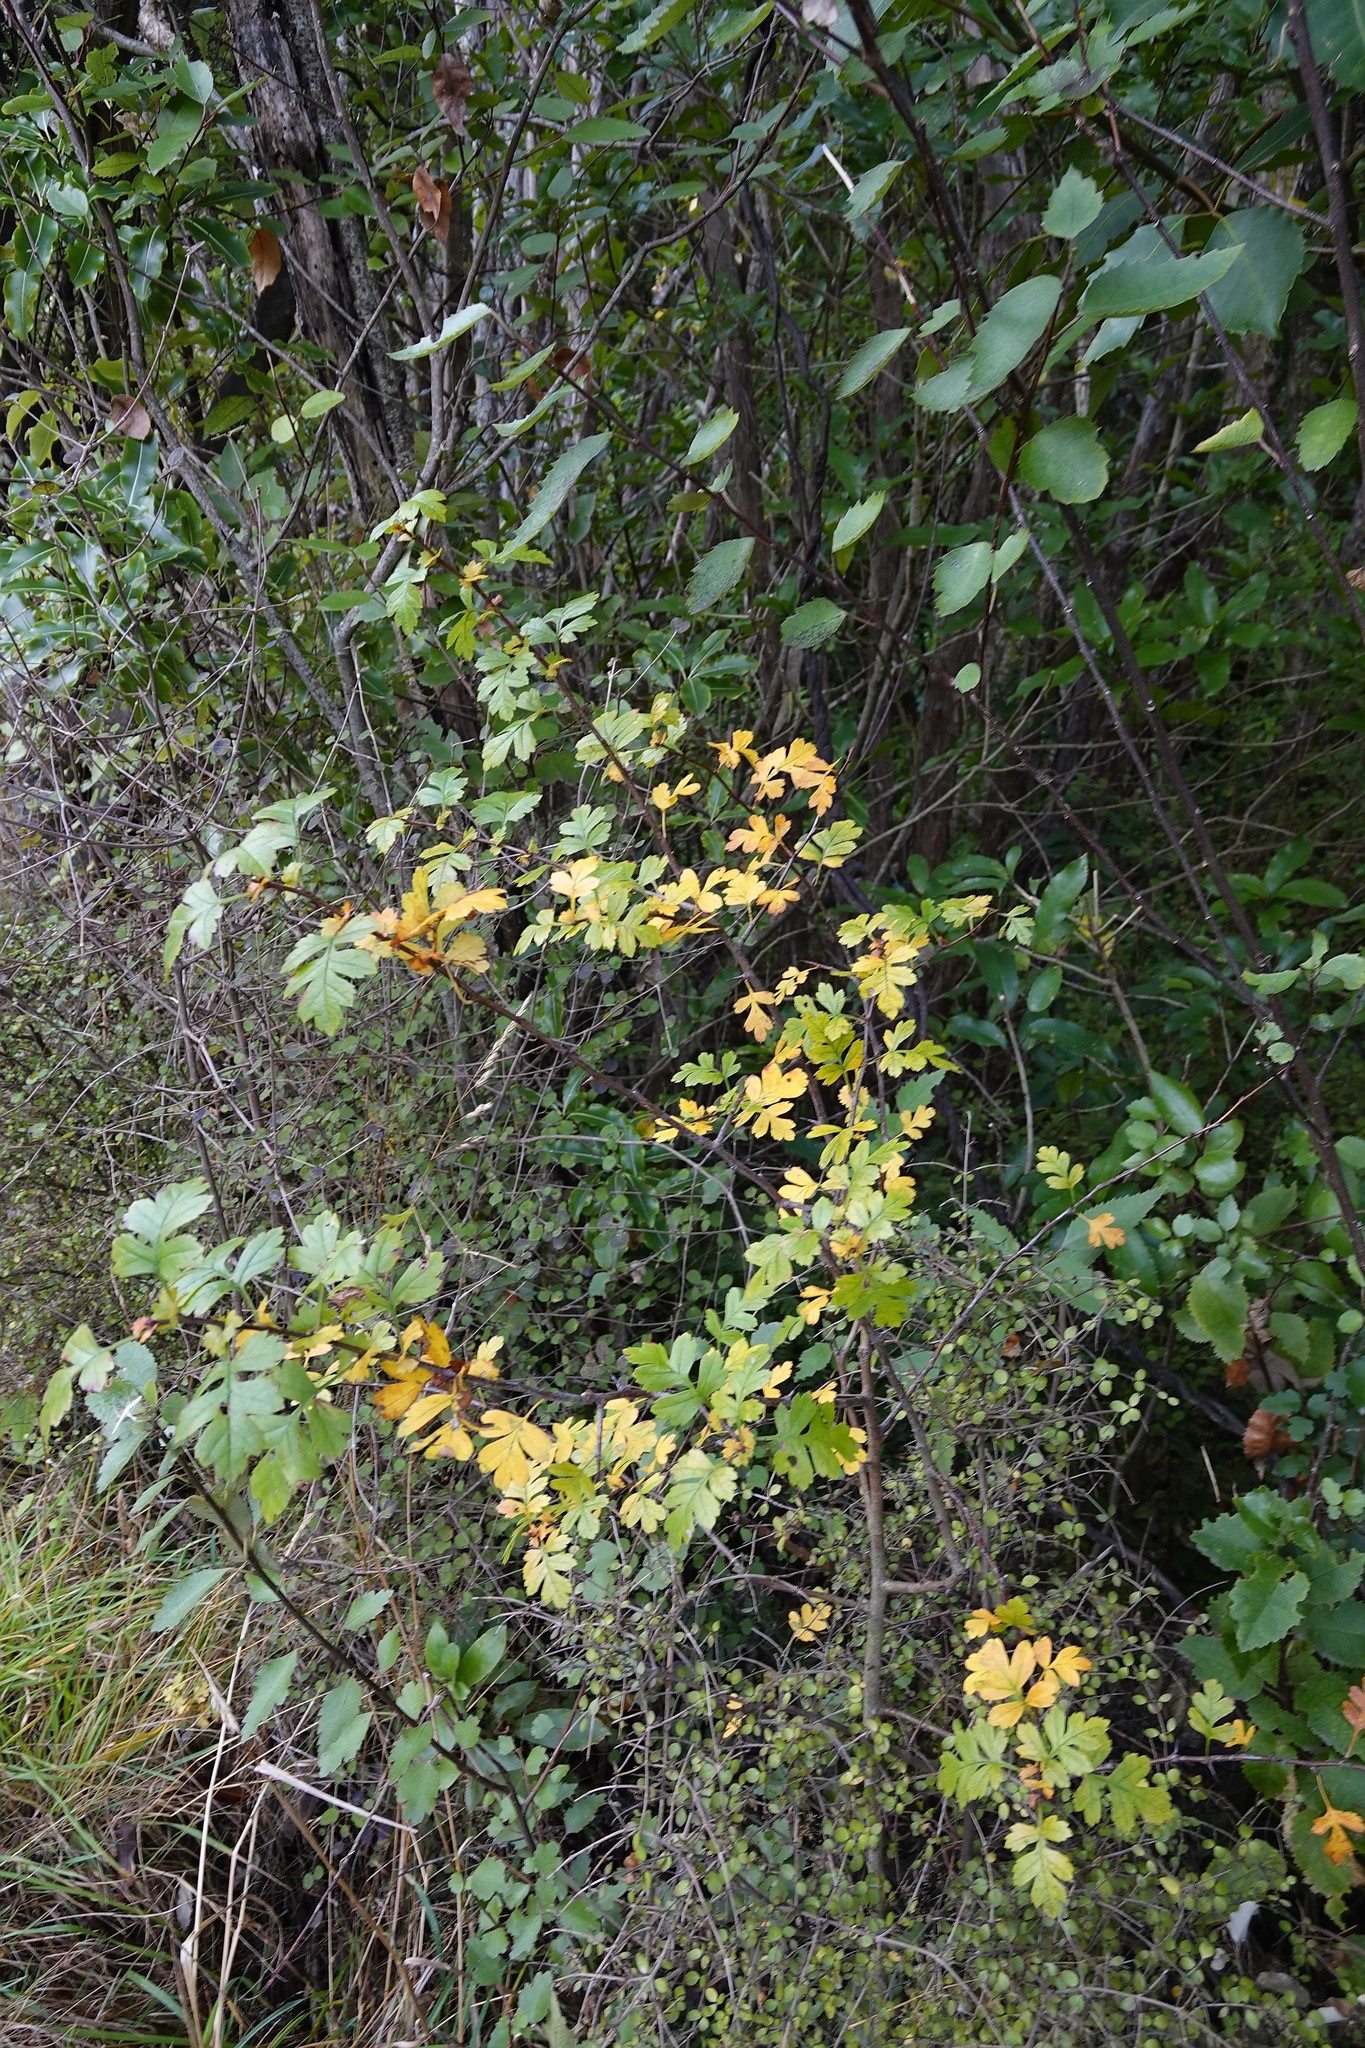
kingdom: Plantae
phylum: Tracheophyta
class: Magnoliopsida
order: Rosales
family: Rosaceae
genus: Crataegus
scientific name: Crataegus monogyna
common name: Hawthorn
